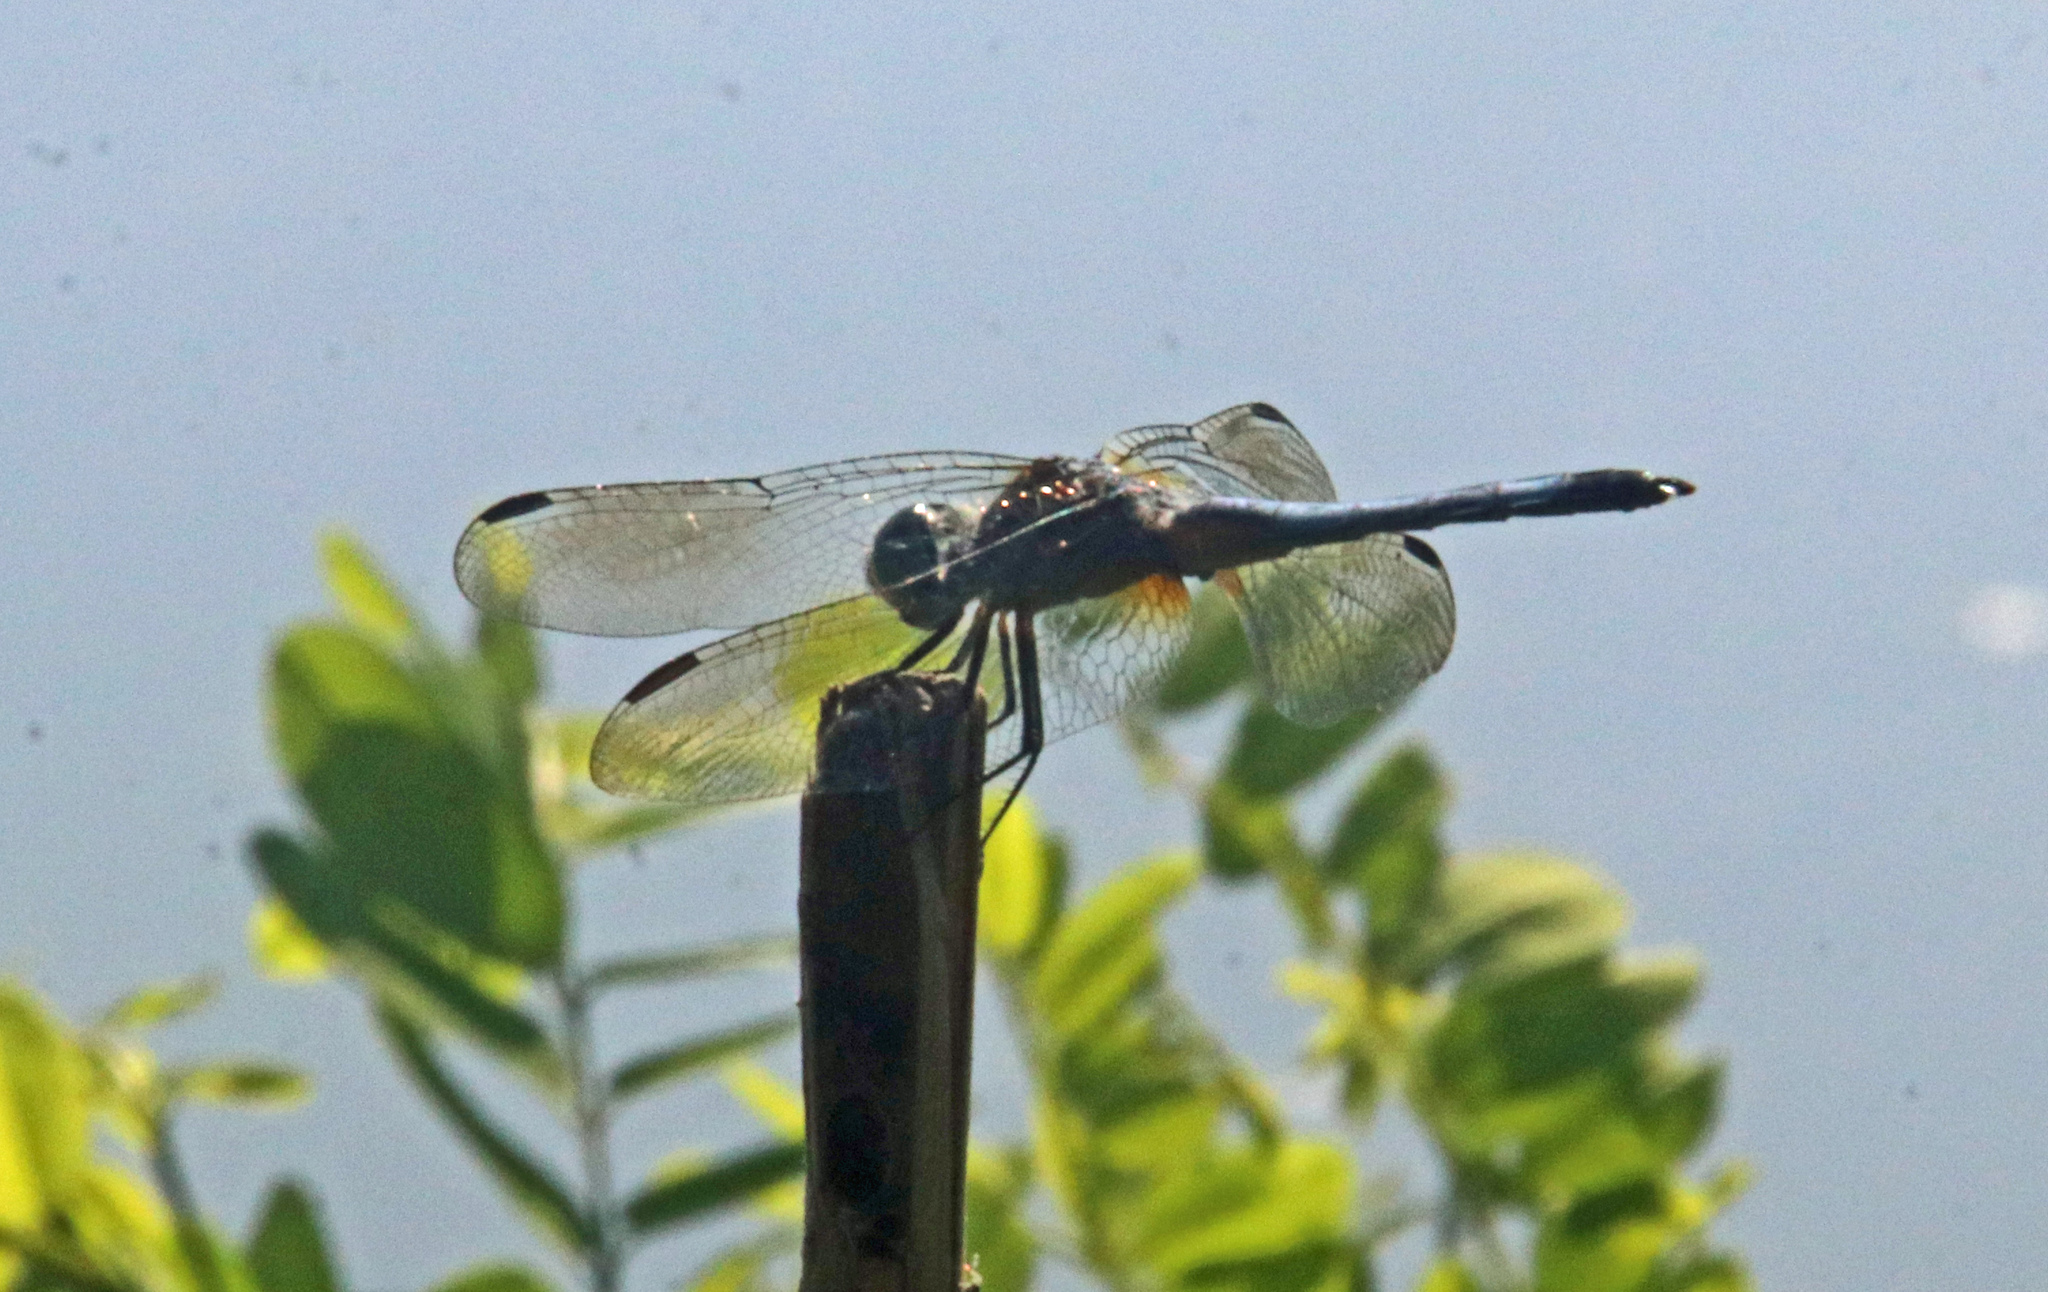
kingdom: Animalia
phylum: Arthropoda
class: Insecta
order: Odonata
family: Libellulidae
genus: Pachydiplax
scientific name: Pachydiplax longipennis
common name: Blue dasher
